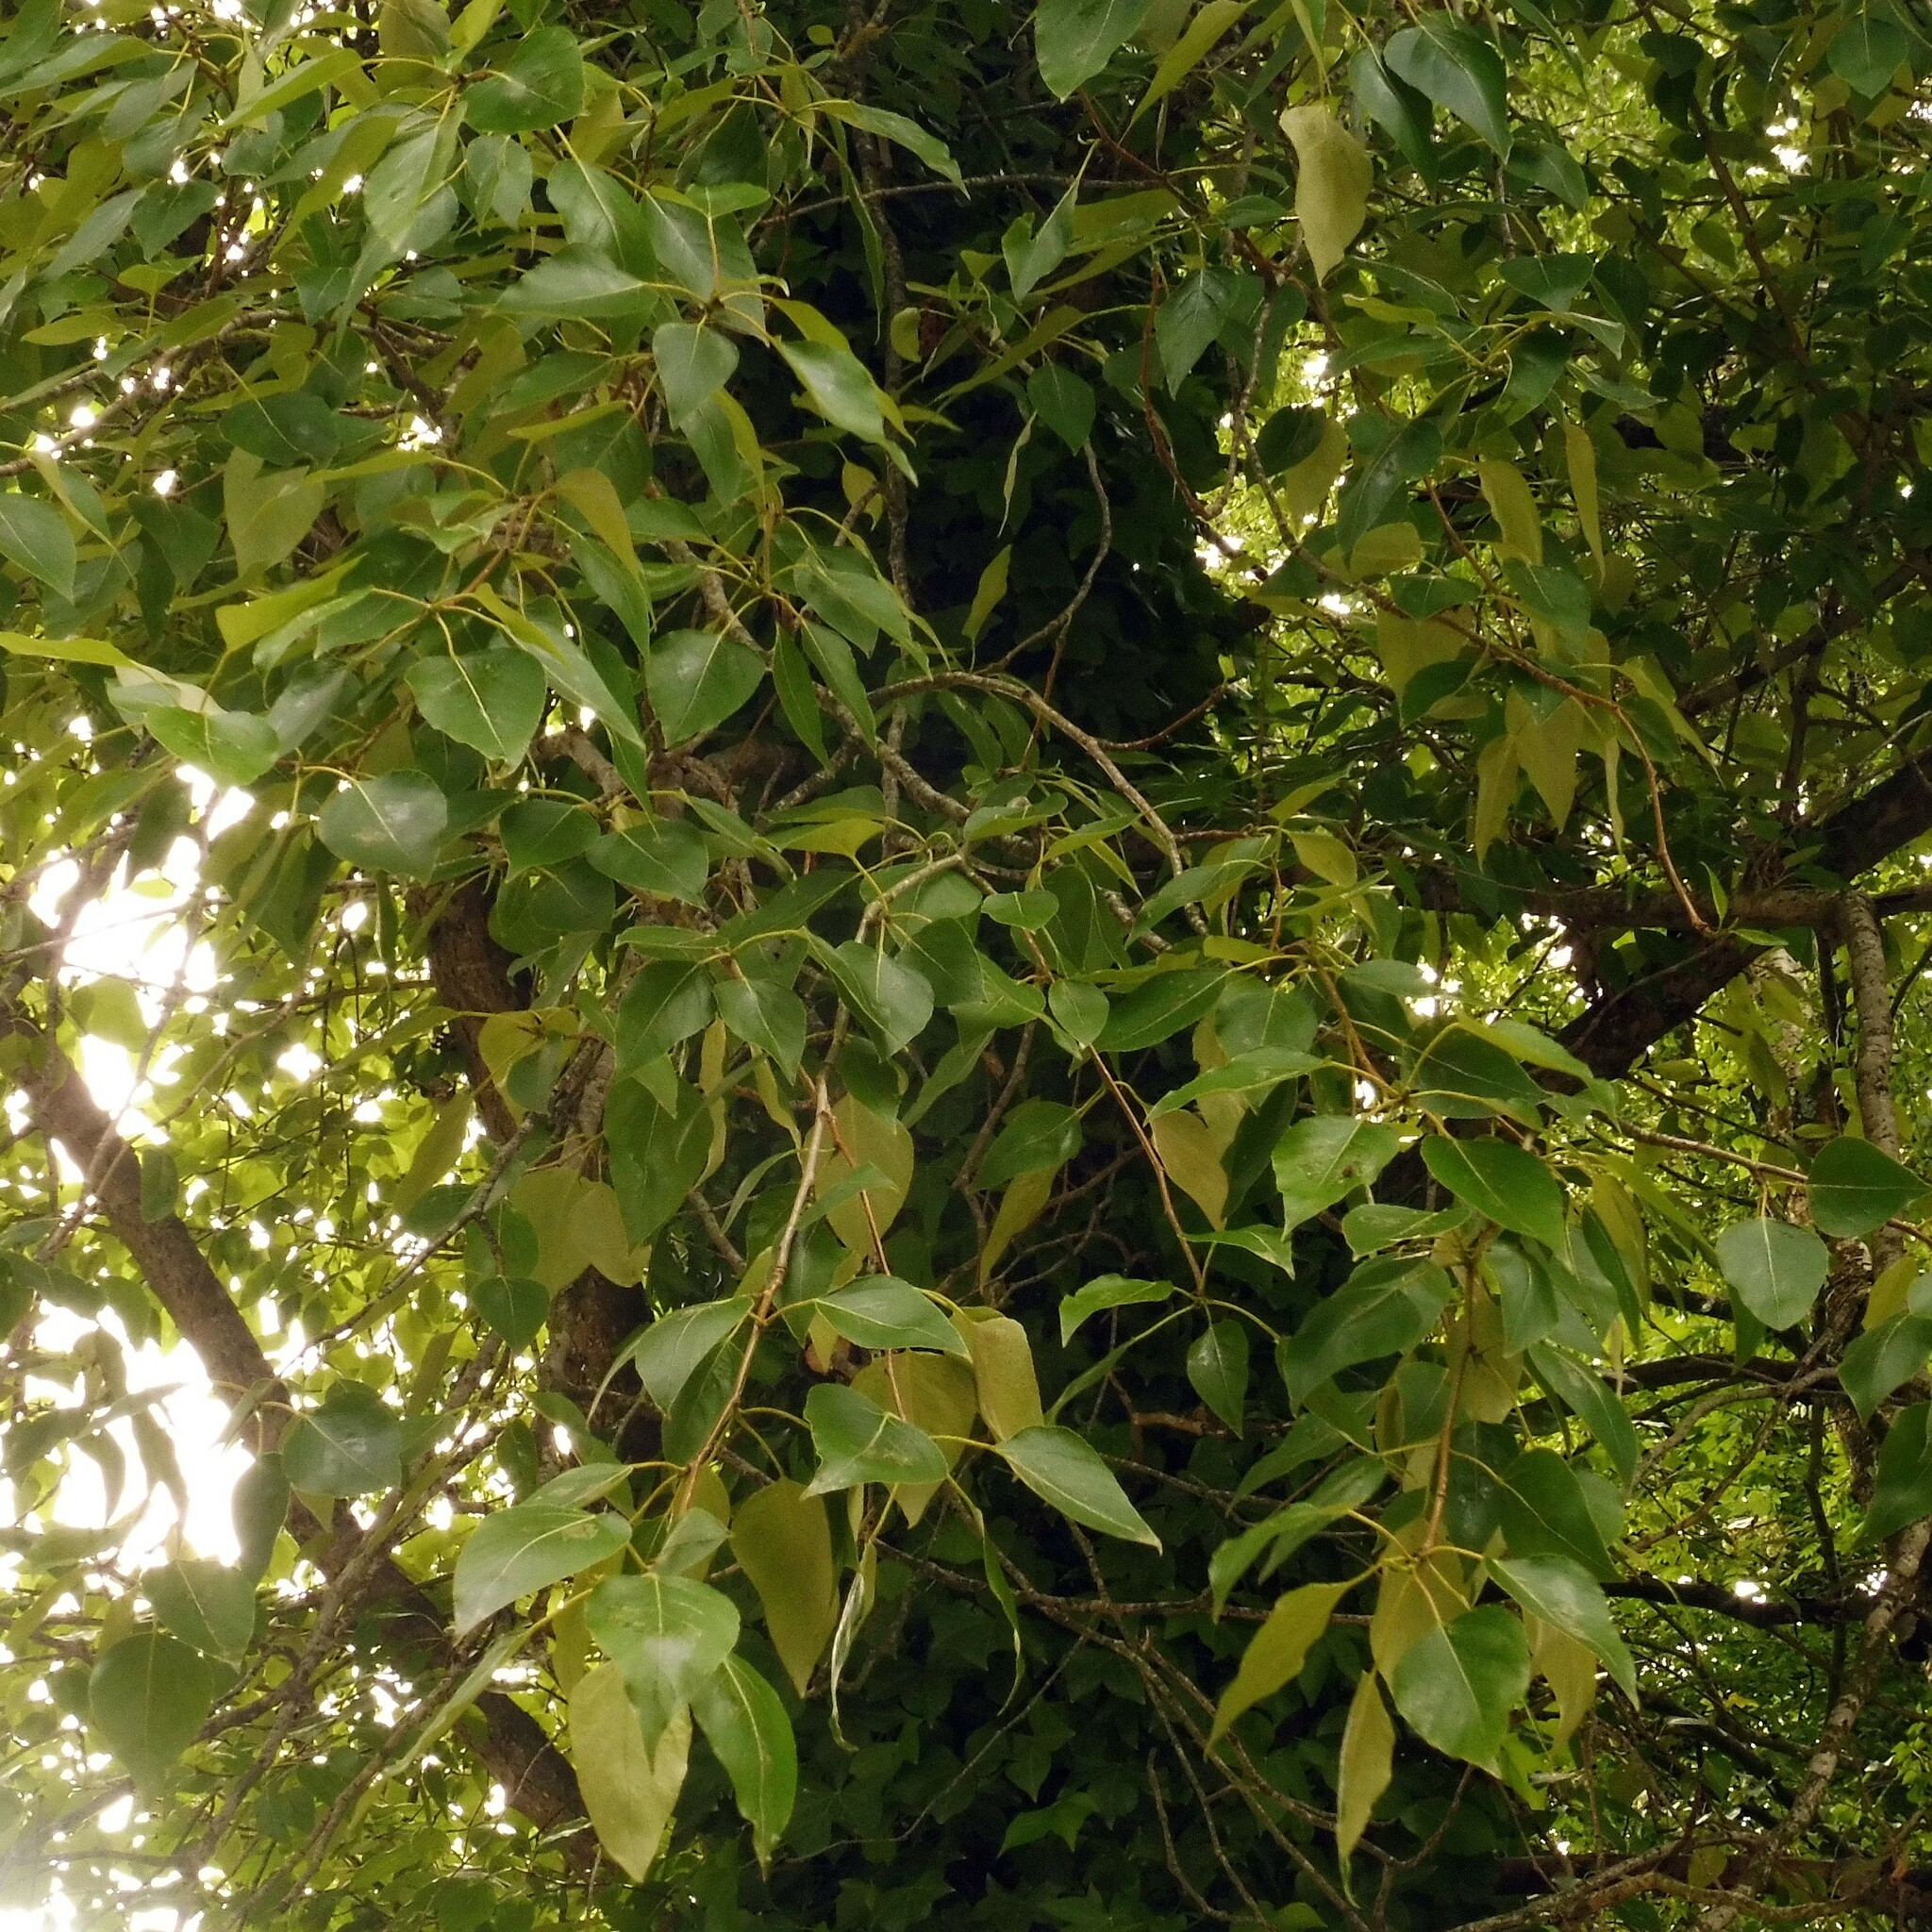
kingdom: Plantae
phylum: Tracheophyta
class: Magnoliopsida
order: Malpighiales
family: Salicaceae
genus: Populus
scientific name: Populus trichocarpa
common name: Black cottonwood
